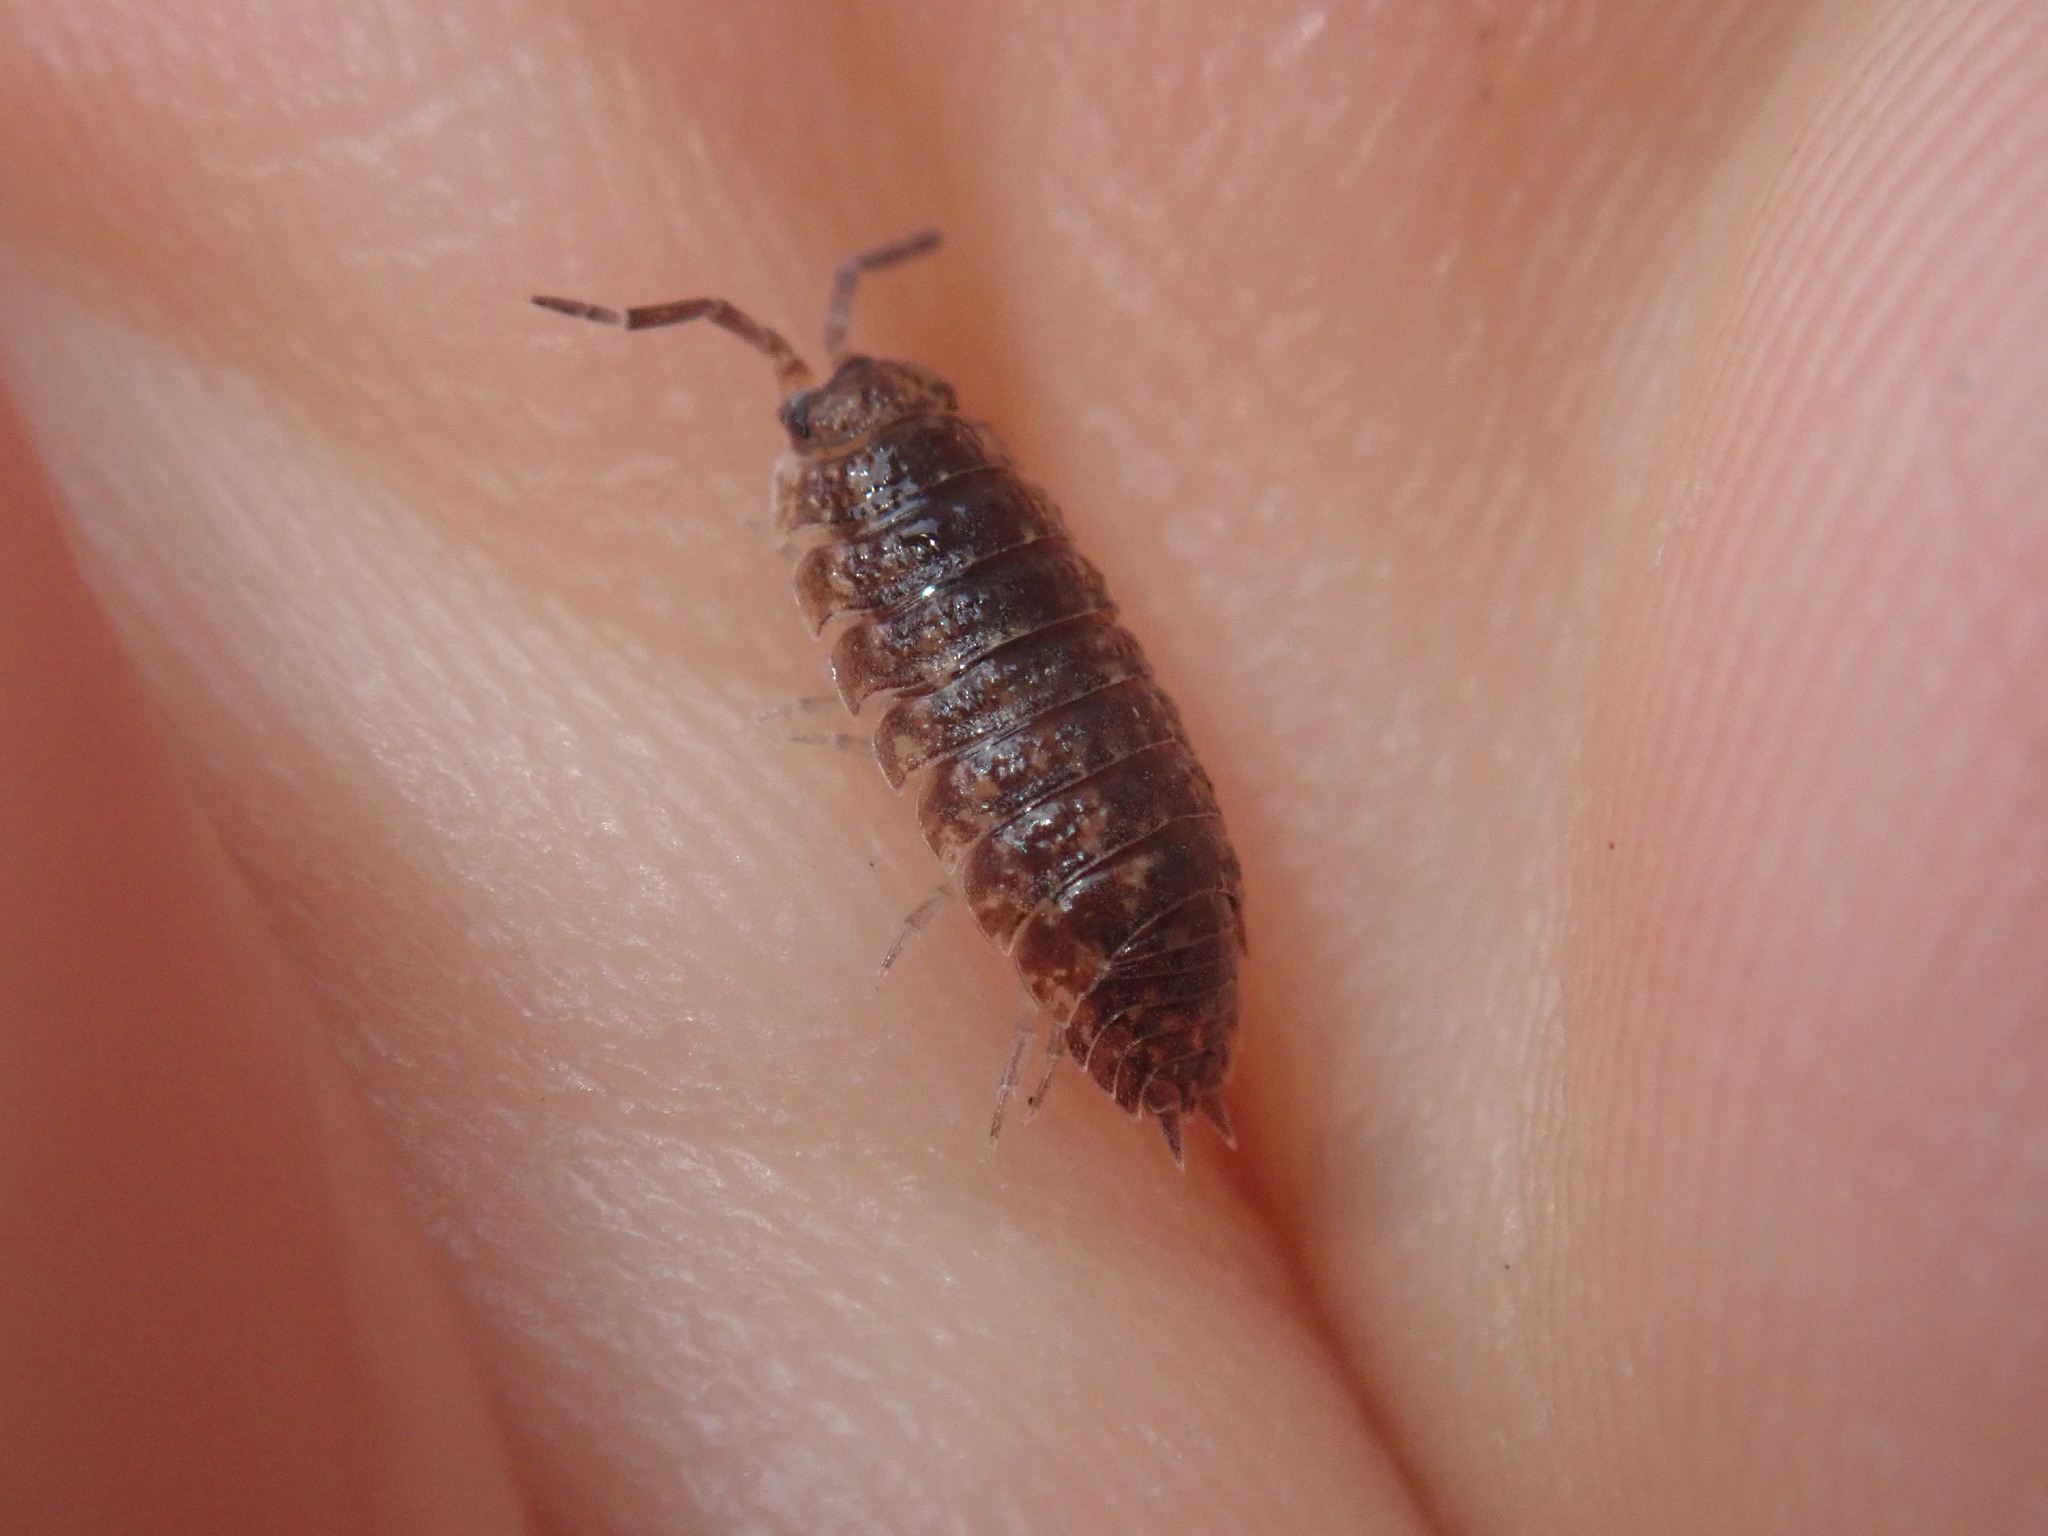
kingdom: Animalia
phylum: Arthropoda
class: Malacostraca
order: Isopoda
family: Porcellionidae
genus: Porcellio
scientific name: Porcellio scaber
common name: Common rough woodlouse
